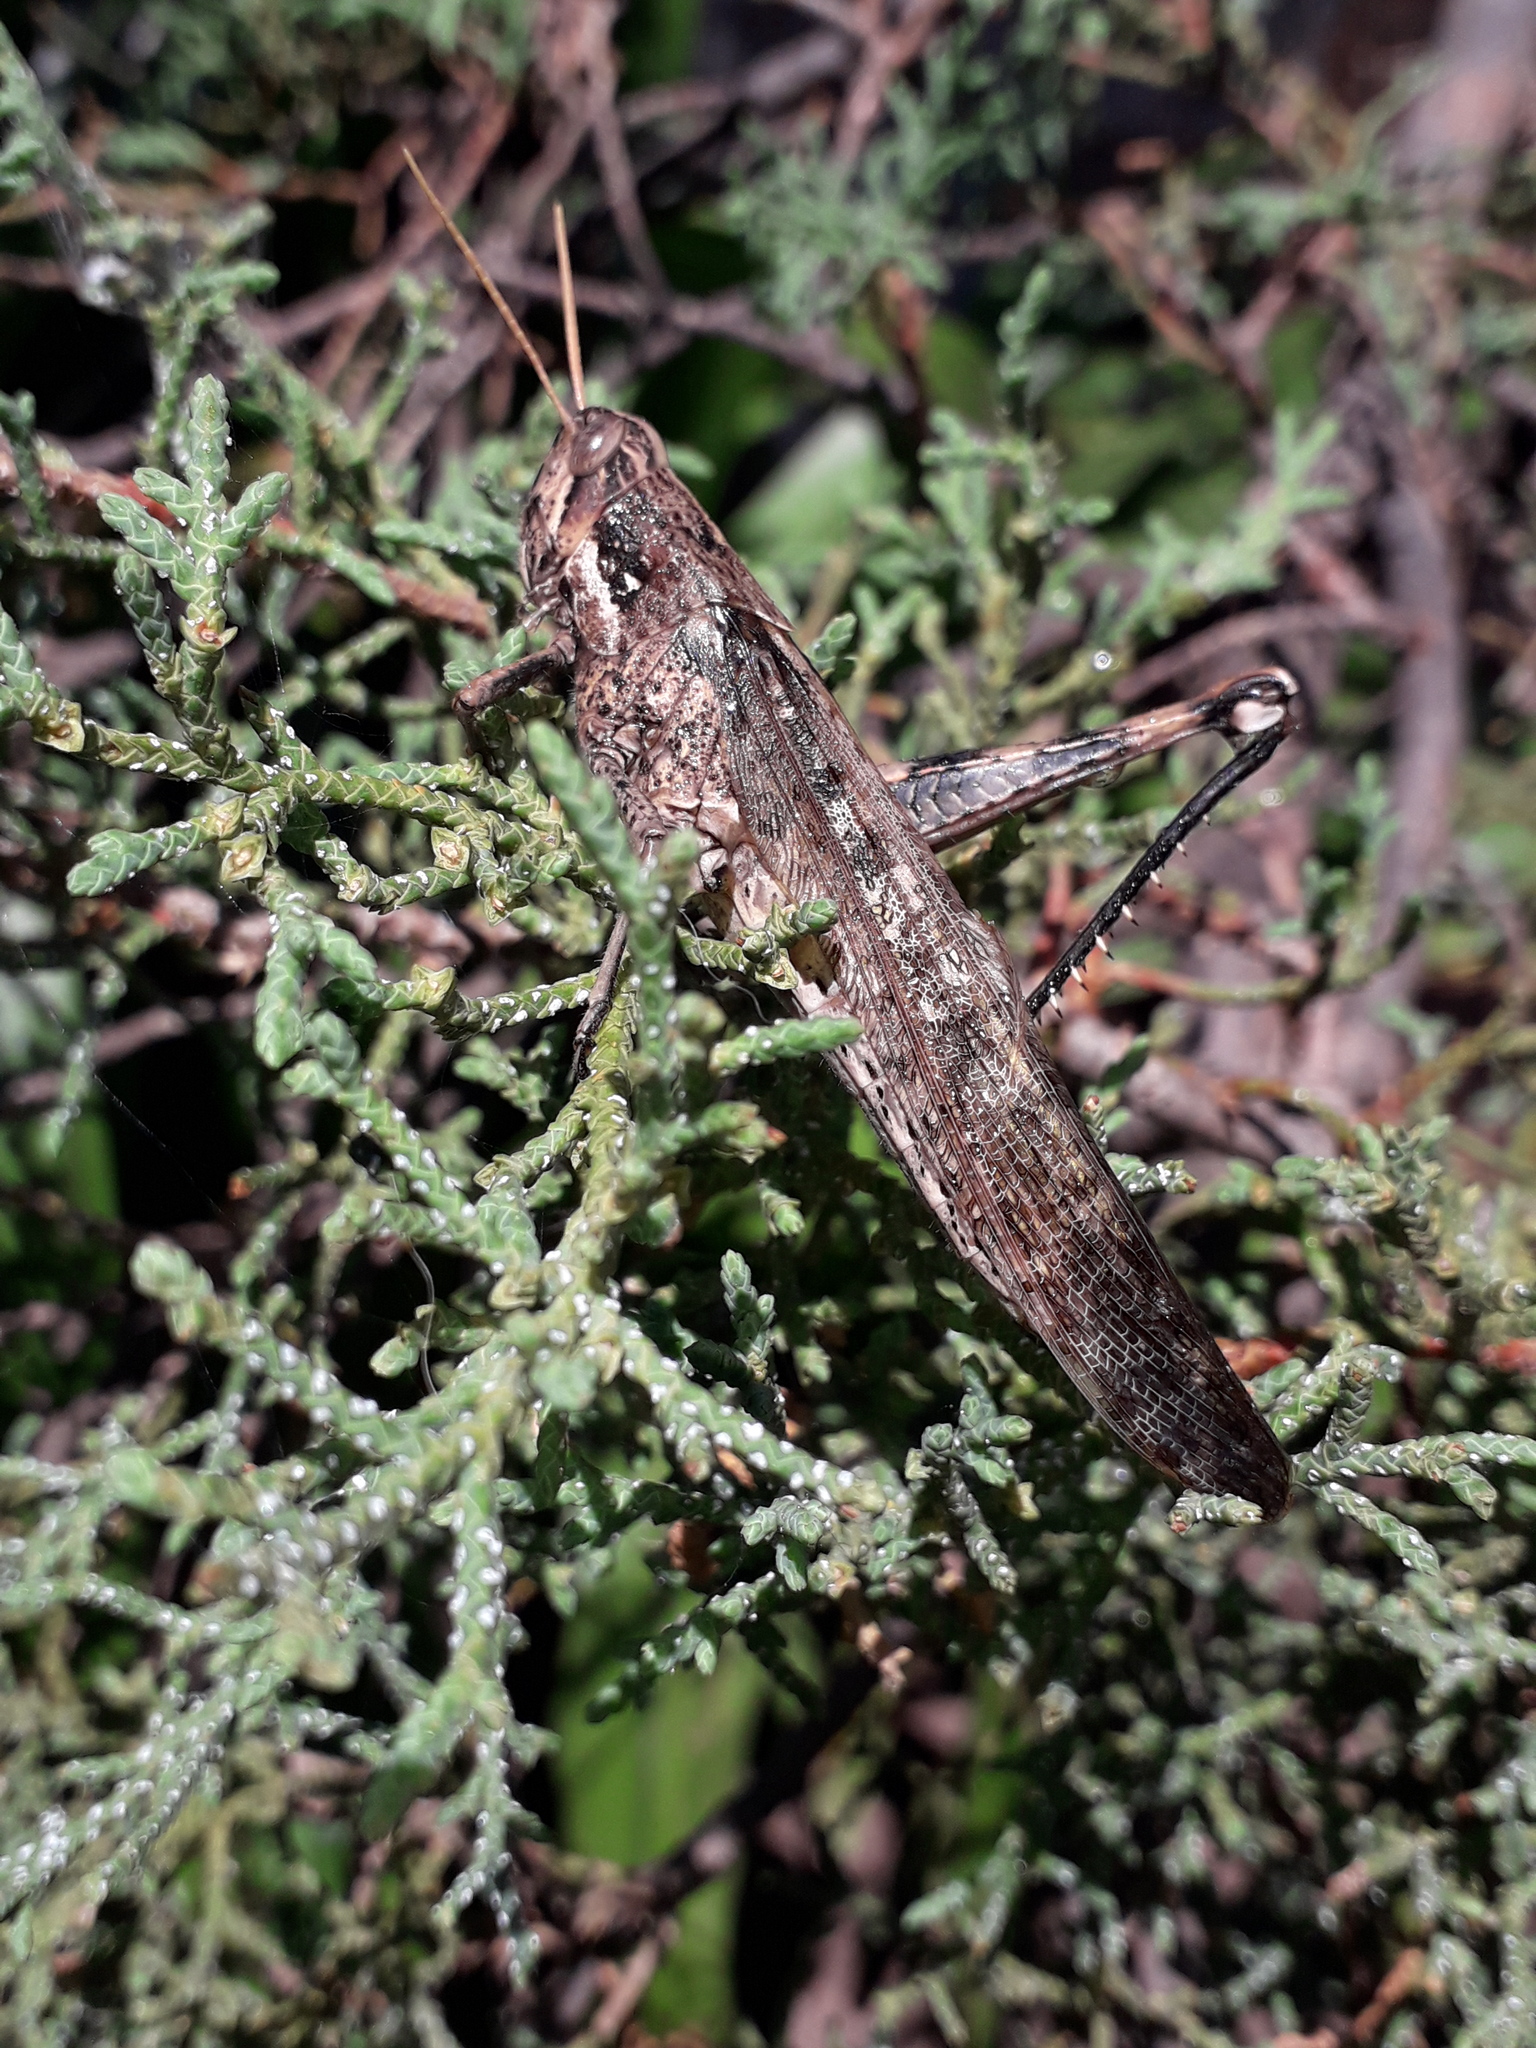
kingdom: Animalia
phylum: Arthropoda
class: Insecta
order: Orthoptera
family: Acrididae
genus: Schistocerca
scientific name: Schistocerca nitens
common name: Vagrant grasshopper
